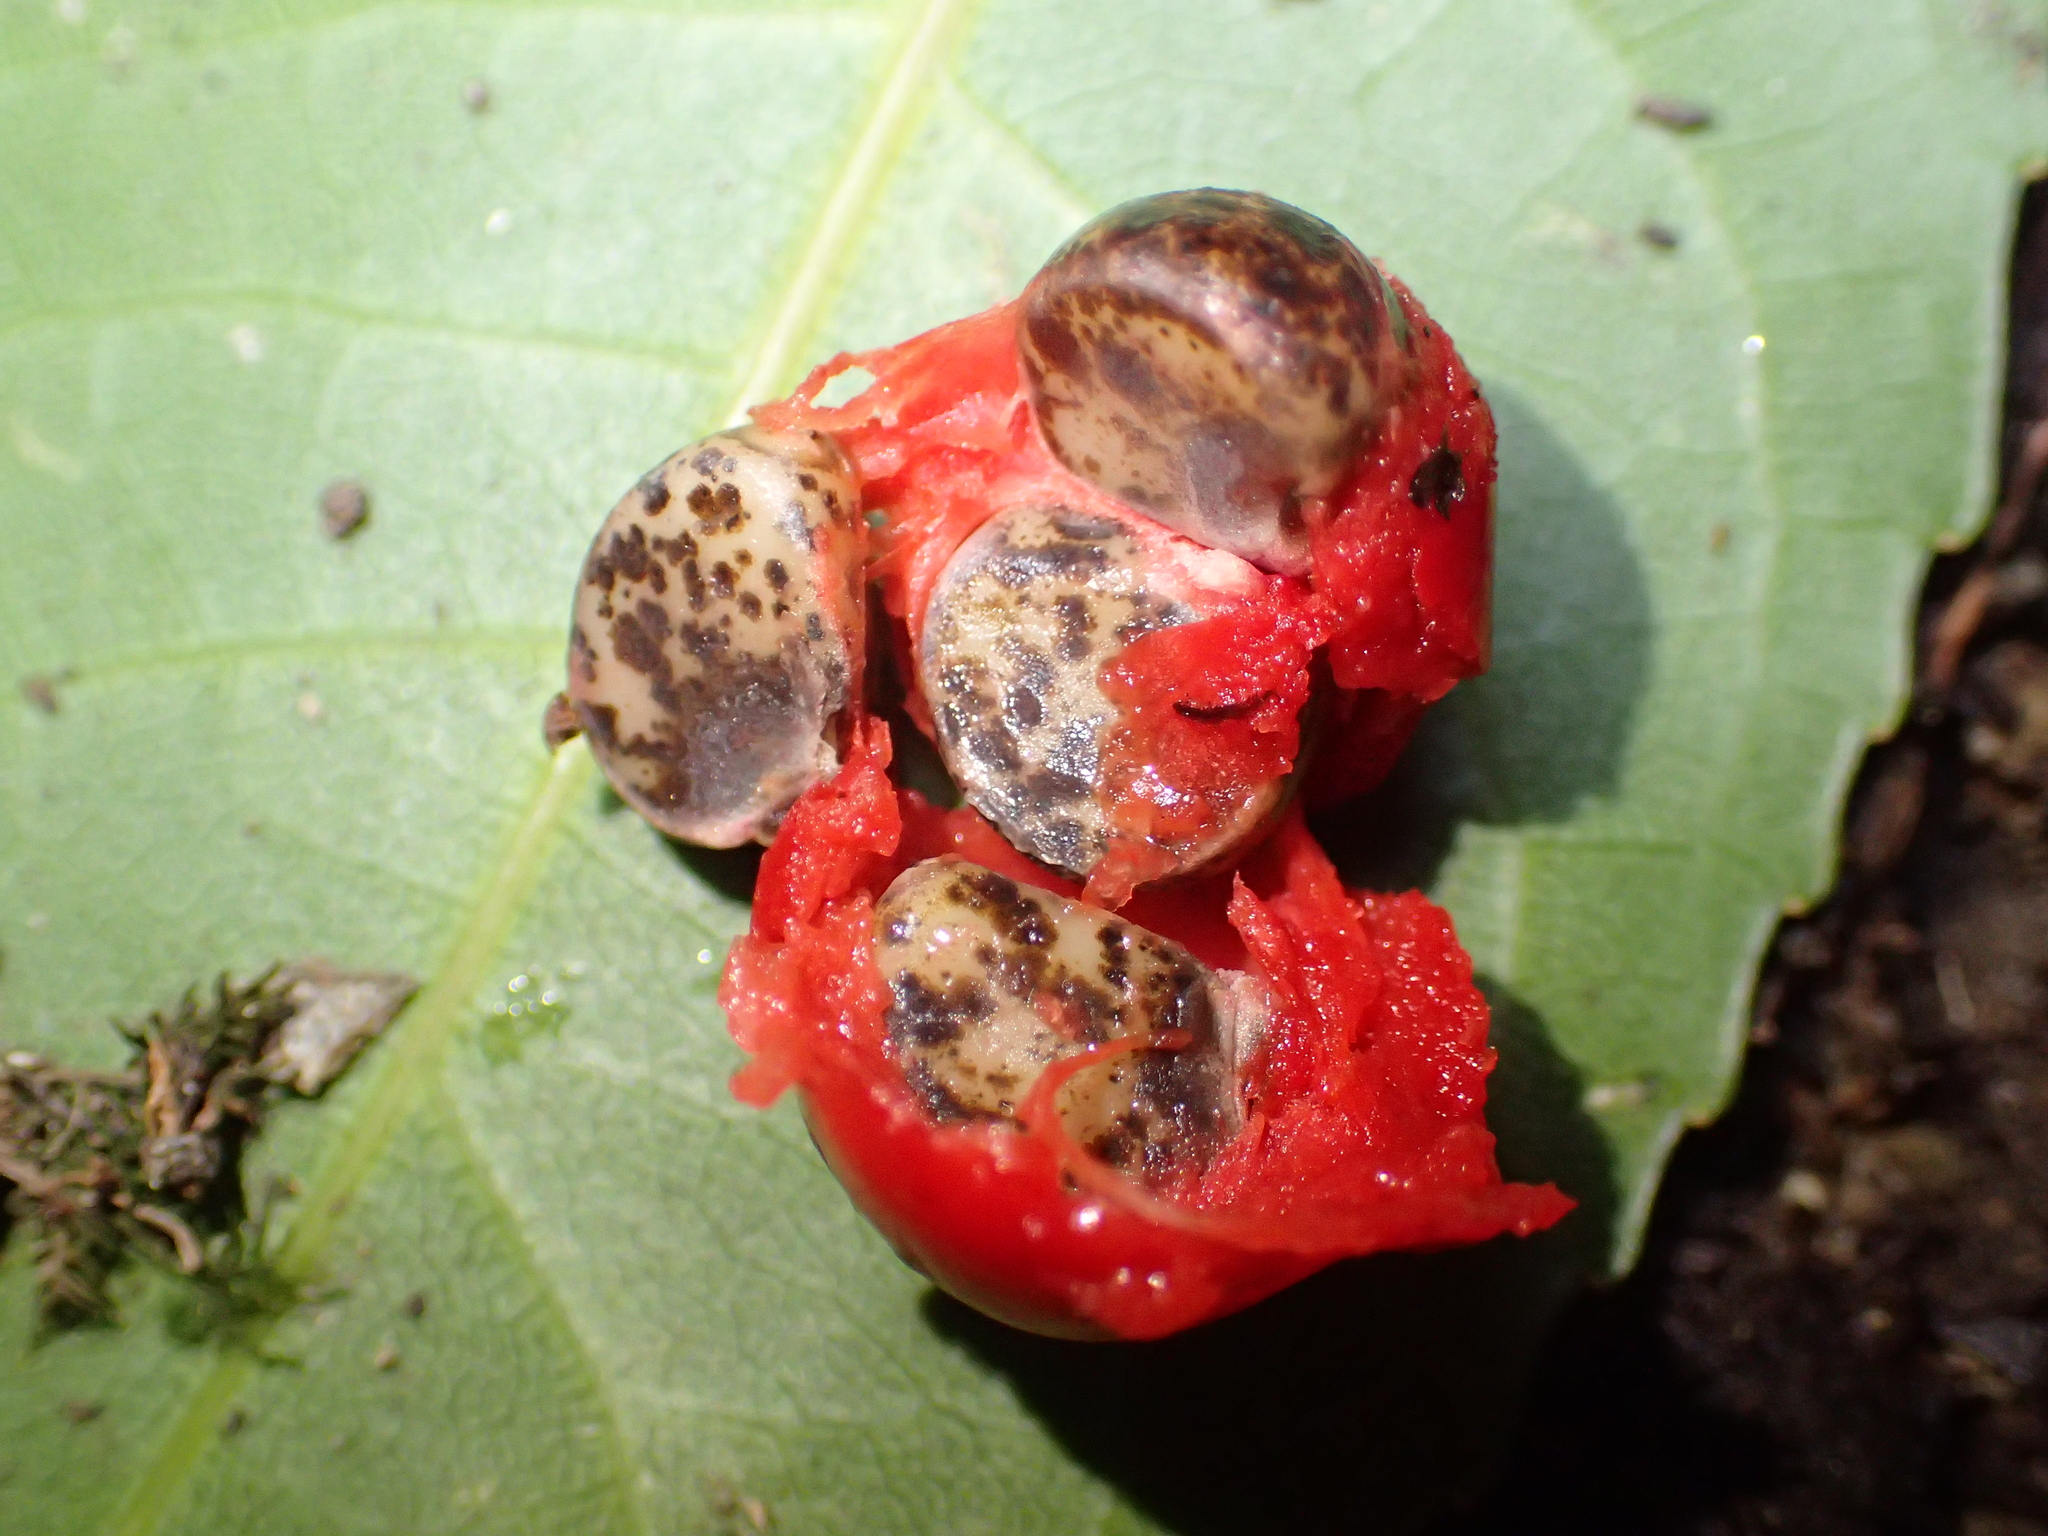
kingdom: Plantae
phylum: Tracheophyta
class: Liliopsida
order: Liliales
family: Ripogonaceae
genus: Ripogonum
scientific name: Ripogonum scandens
